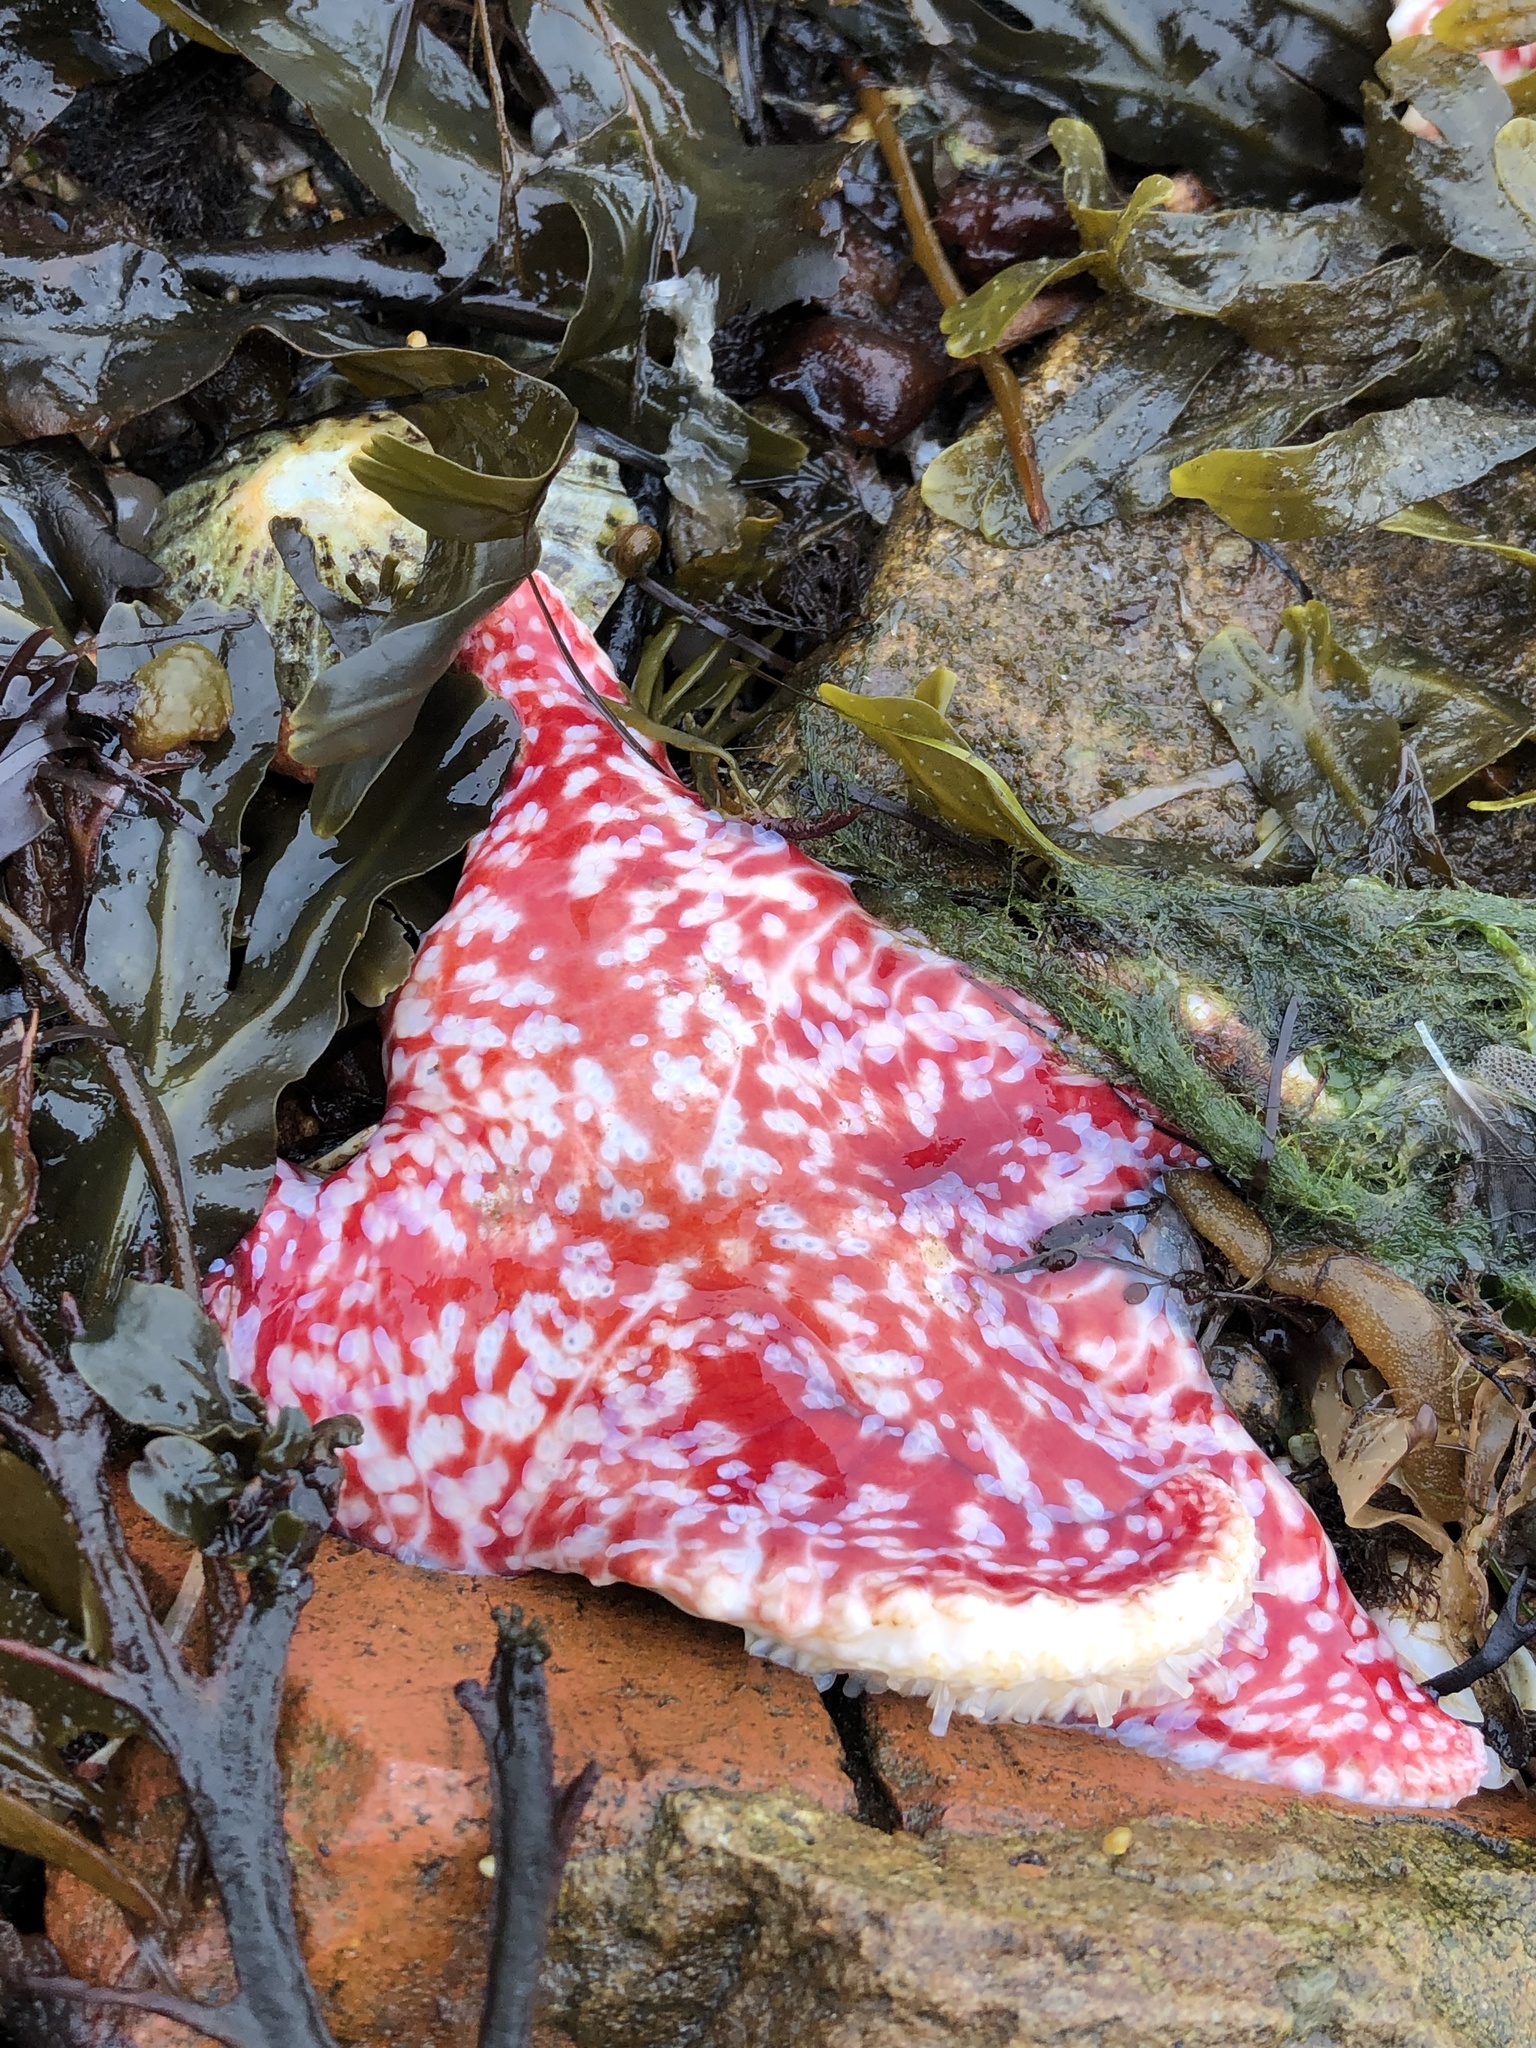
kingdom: Animalia
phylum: Echinodermata
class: Asteroidea
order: Valvatida
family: Poraniidae
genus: Porania
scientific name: Porania pulvillus
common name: Red cushion stat
